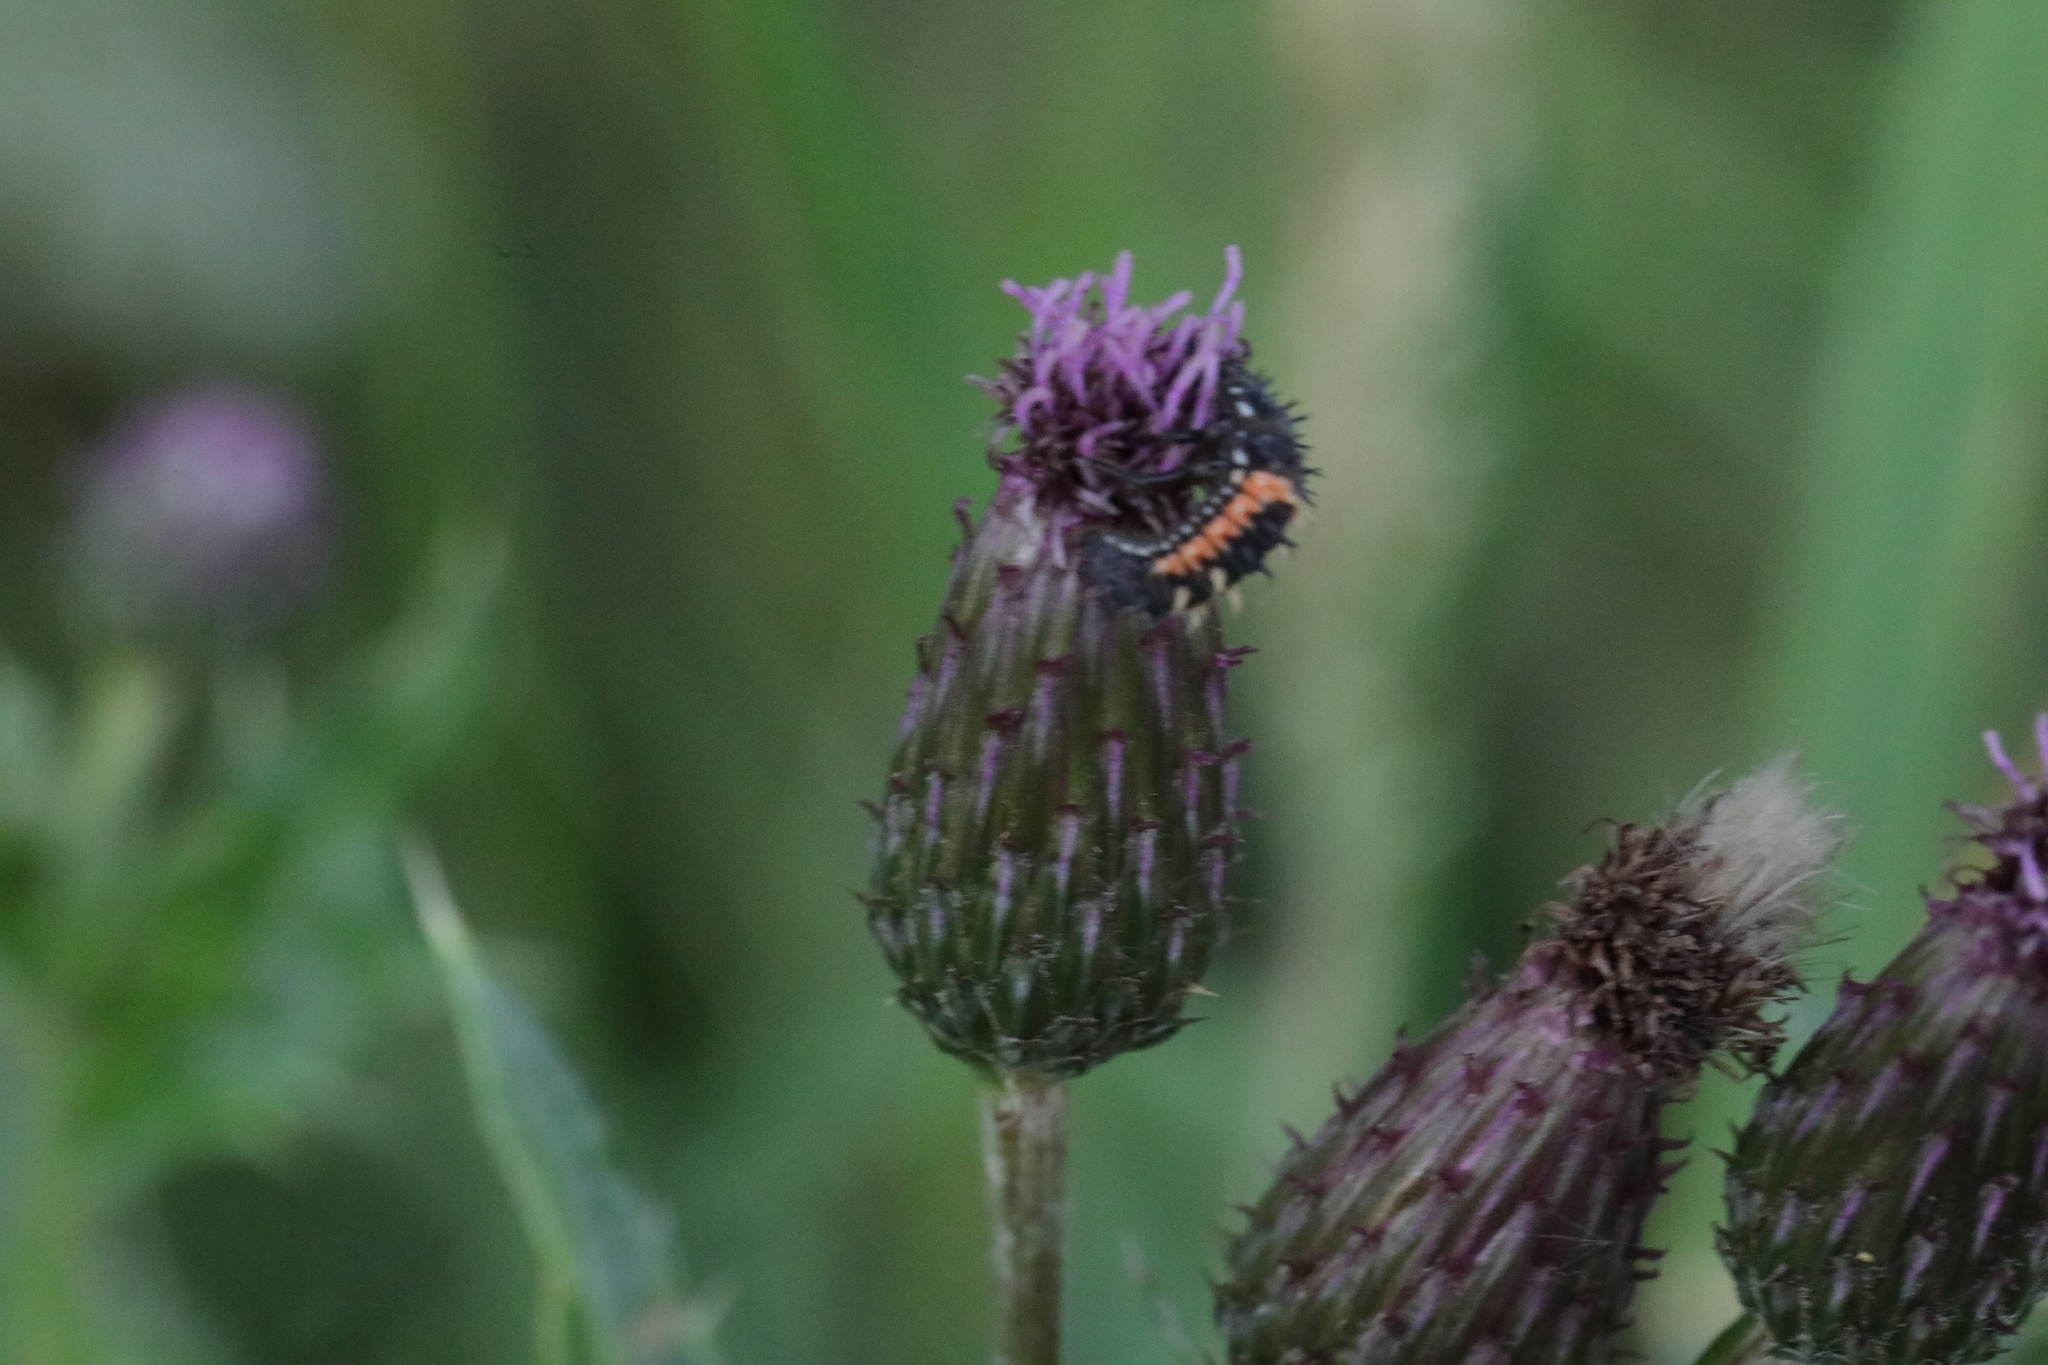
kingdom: Animalia
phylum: Arthropoda
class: Insecta
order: Coleoptera
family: Coccinellidae
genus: Harmonia
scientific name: Harmonia axyridis
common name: Harlequin ladybird
